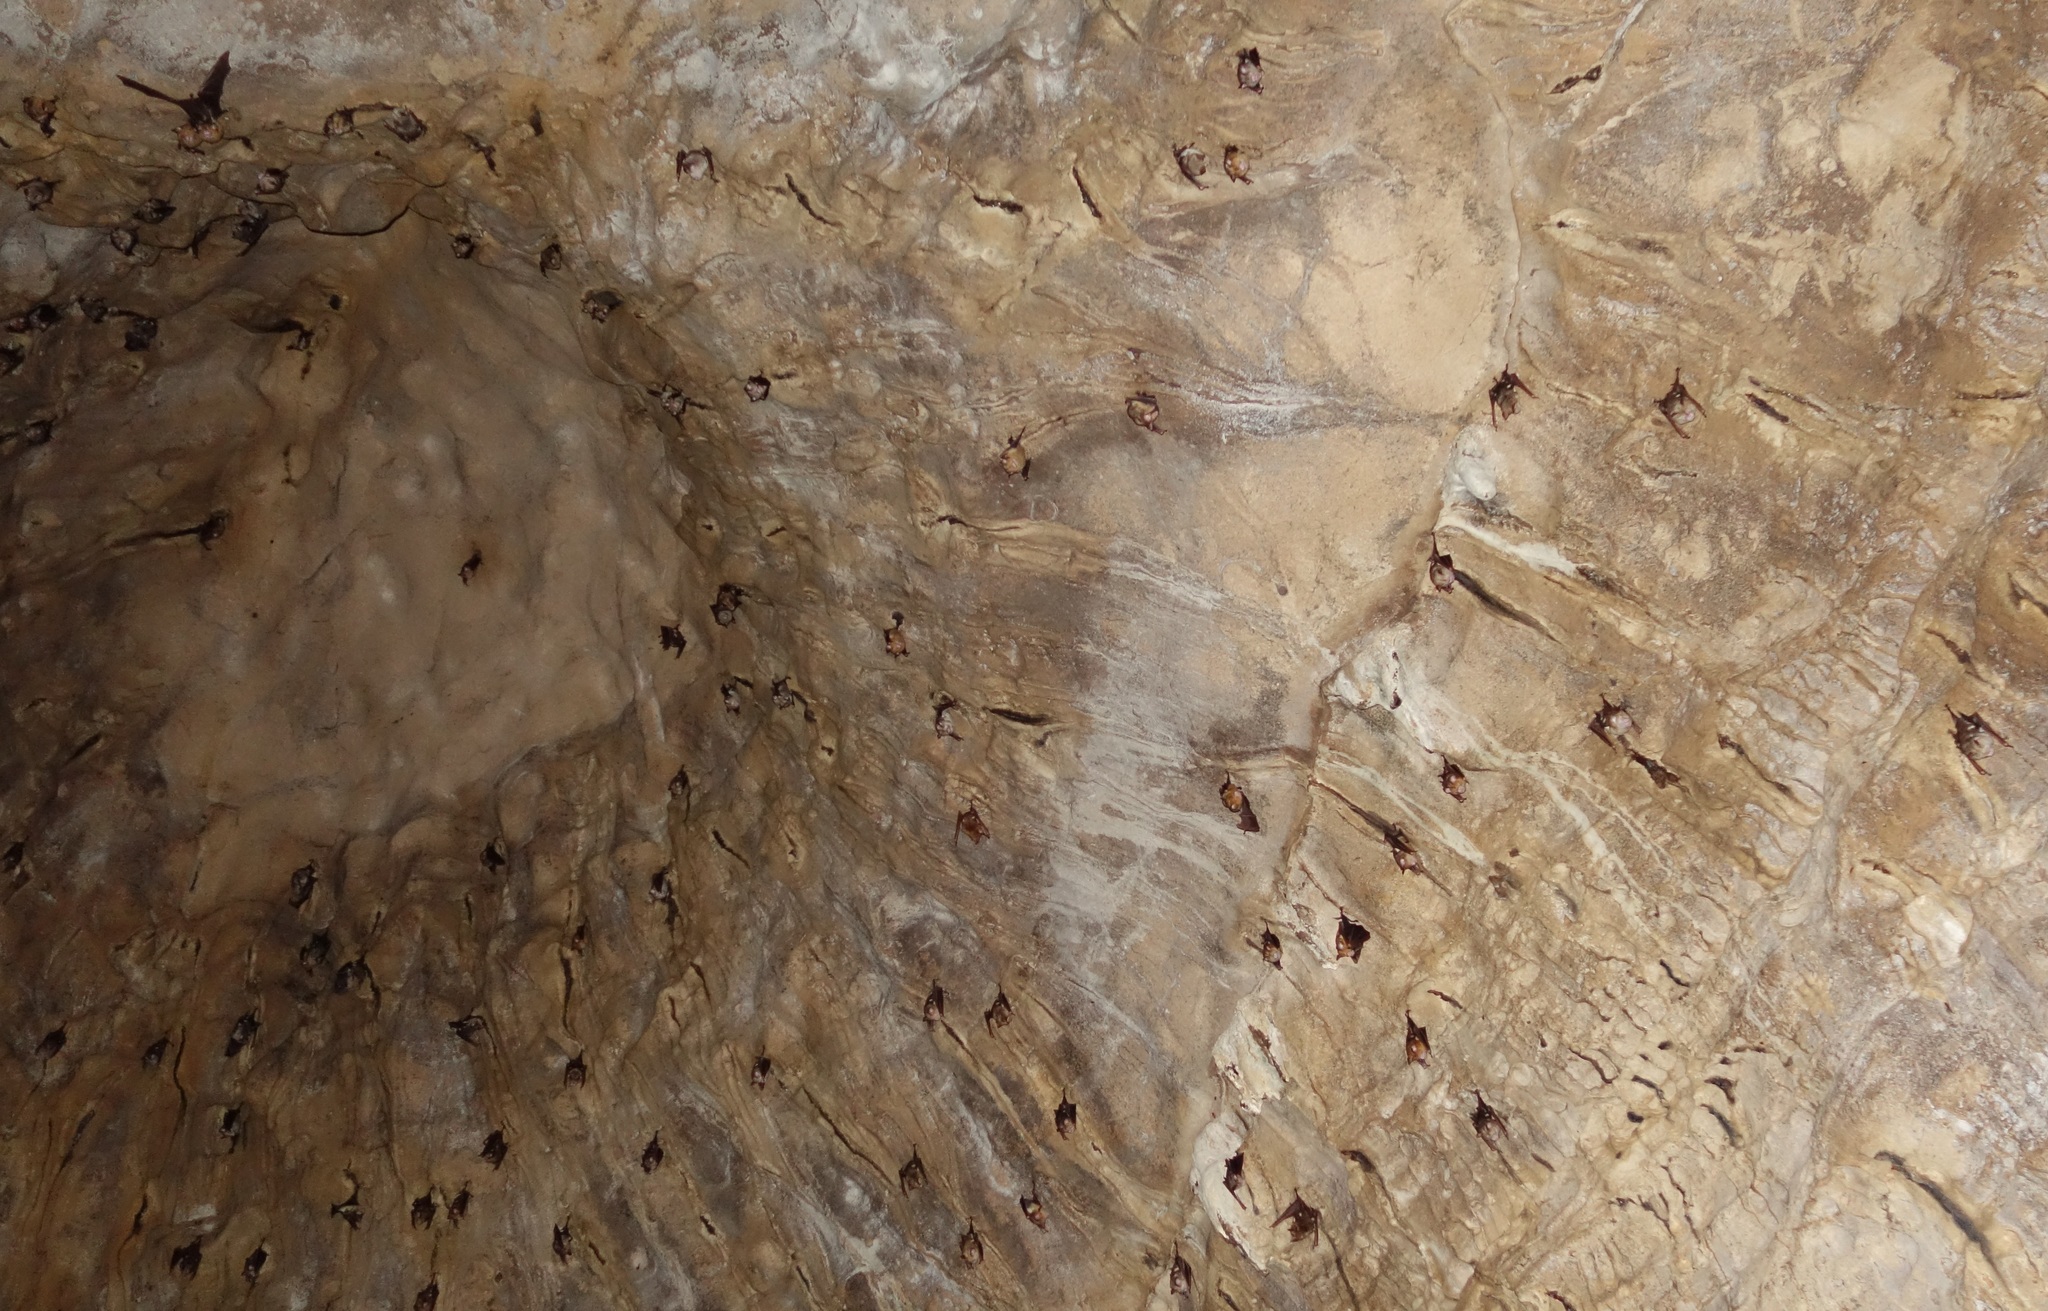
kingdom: Animalia
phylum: Chordata
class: Mammalia
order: Chiroptera
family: Hipposideridae
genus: Hipposideros
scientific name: Hipposideros diadema
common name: Diadem leaf-nosed bat
